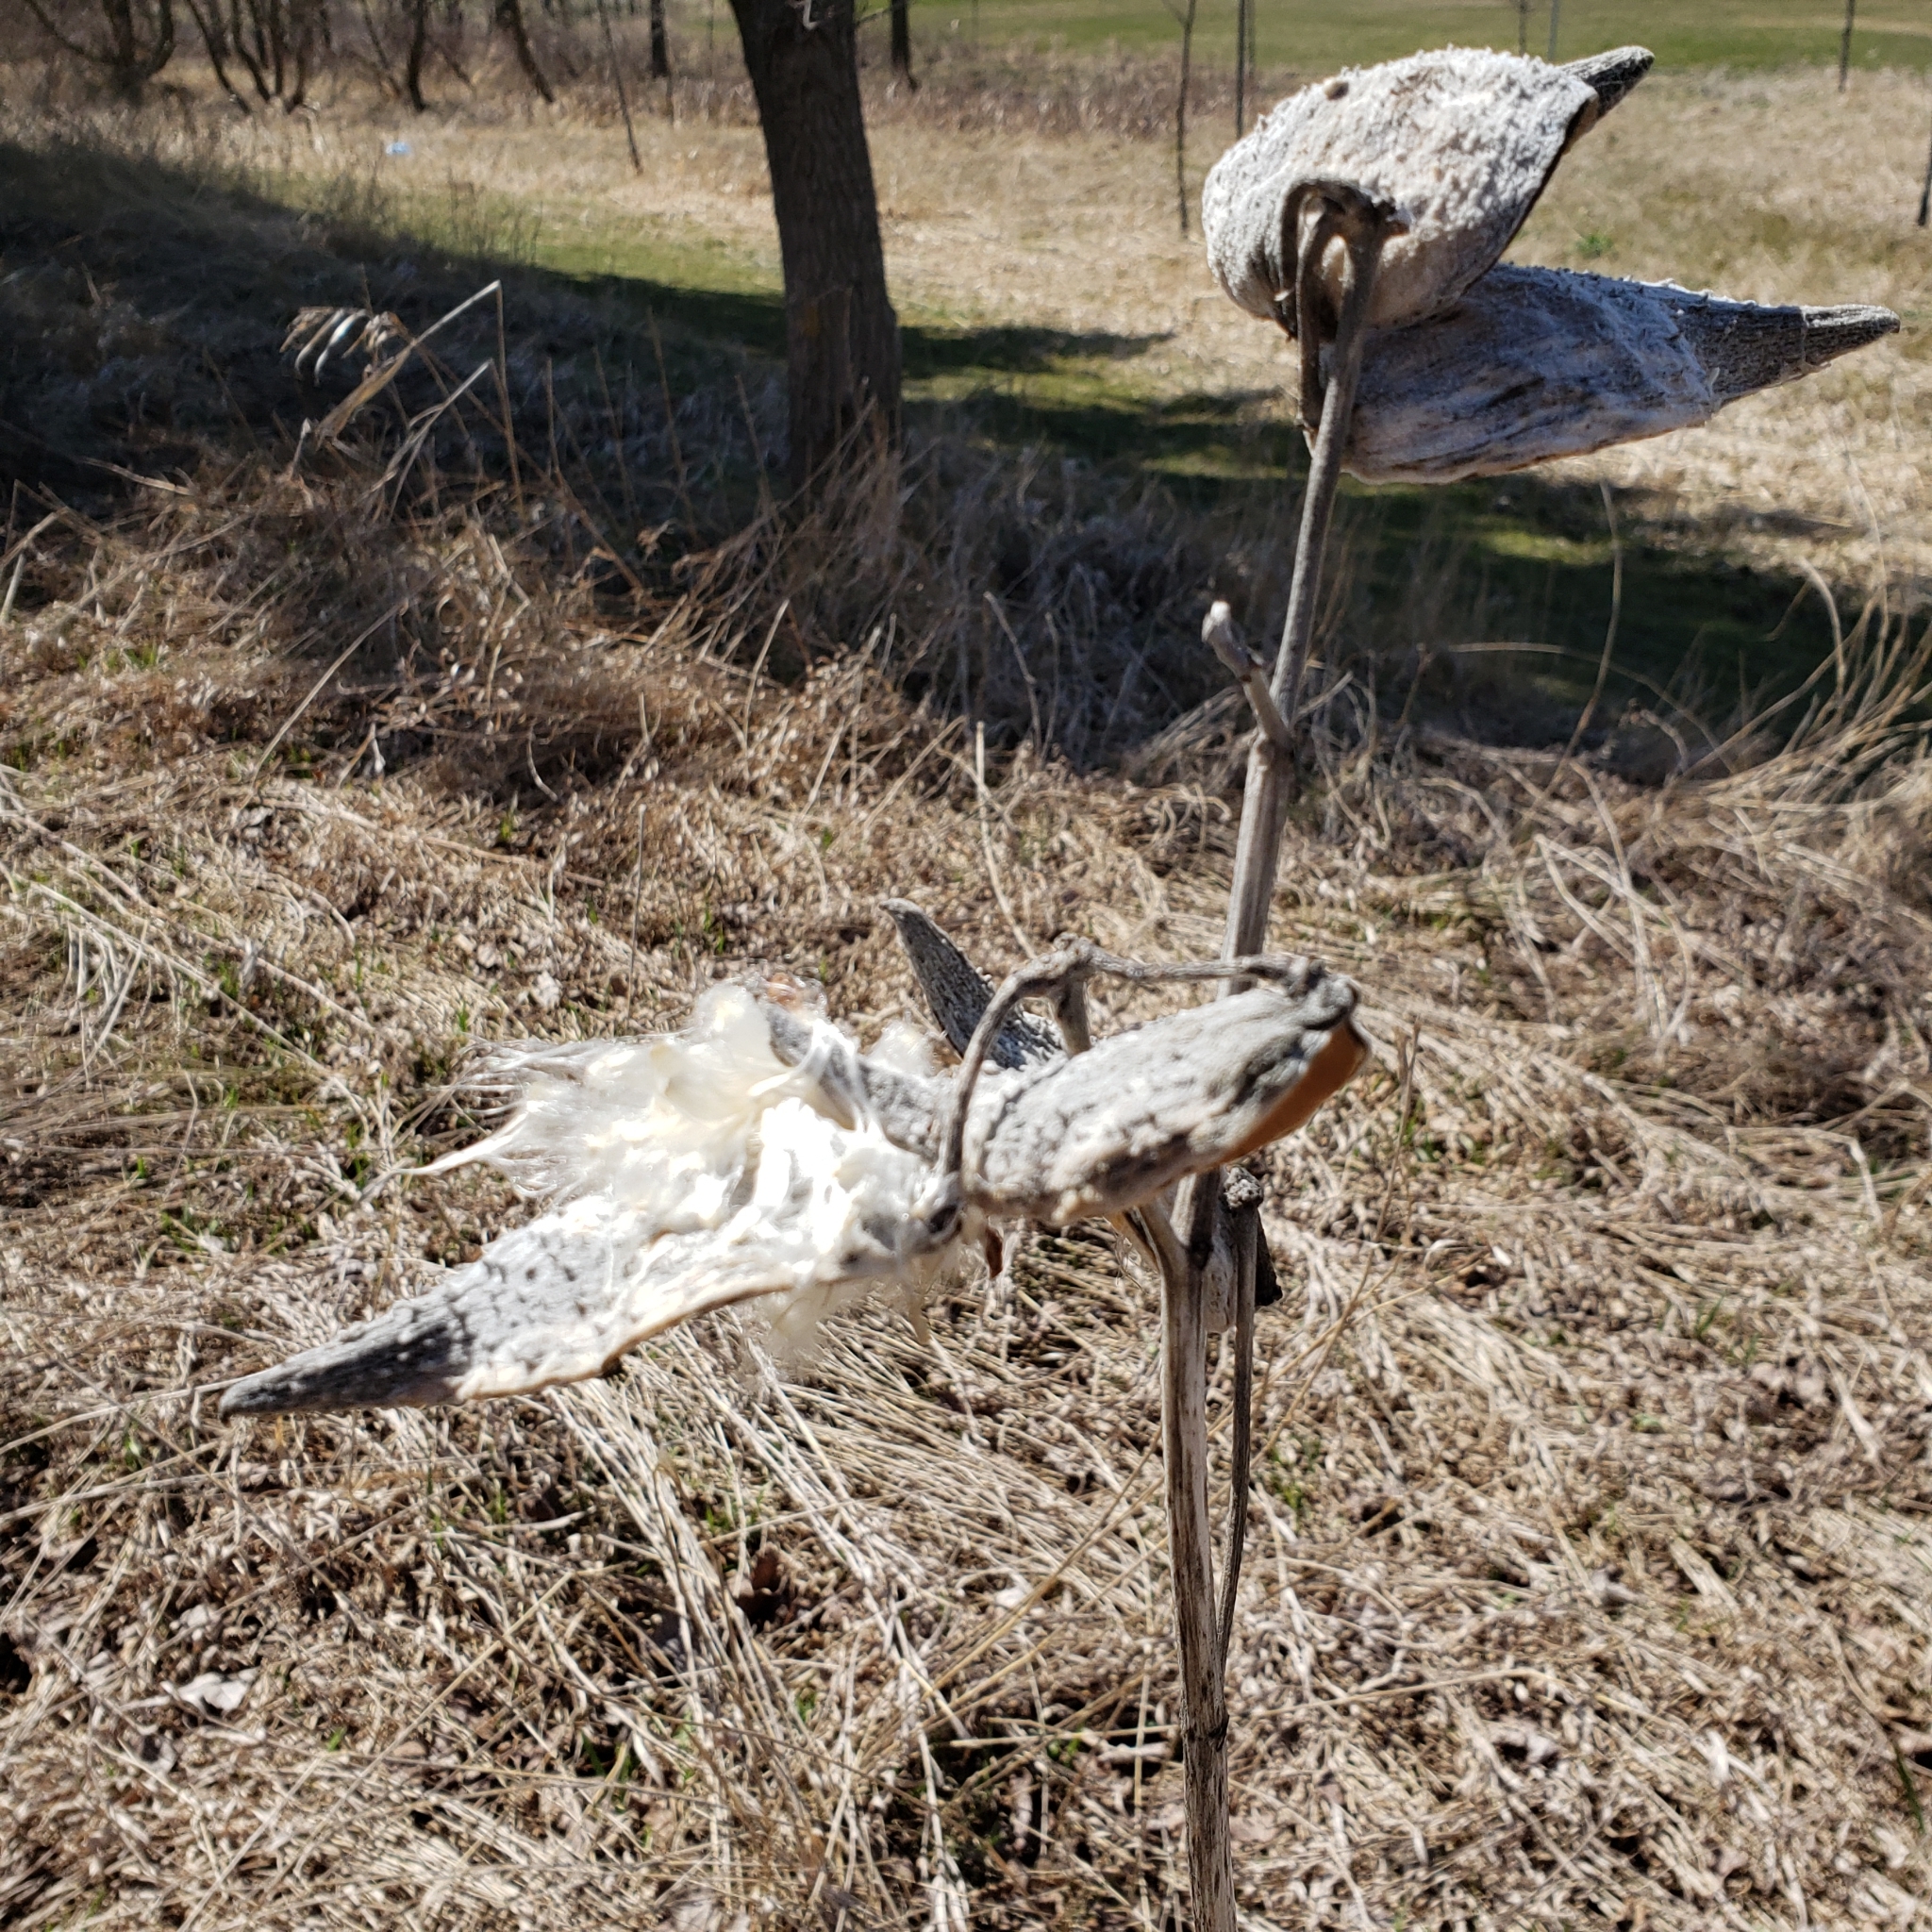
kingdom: Plantae
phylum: Tracheophyta
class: Magnoliopsida
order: Gentianales
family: Apocynaceae
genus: Asclepias
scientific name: Asclepias syriaca
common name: Common milkweed
